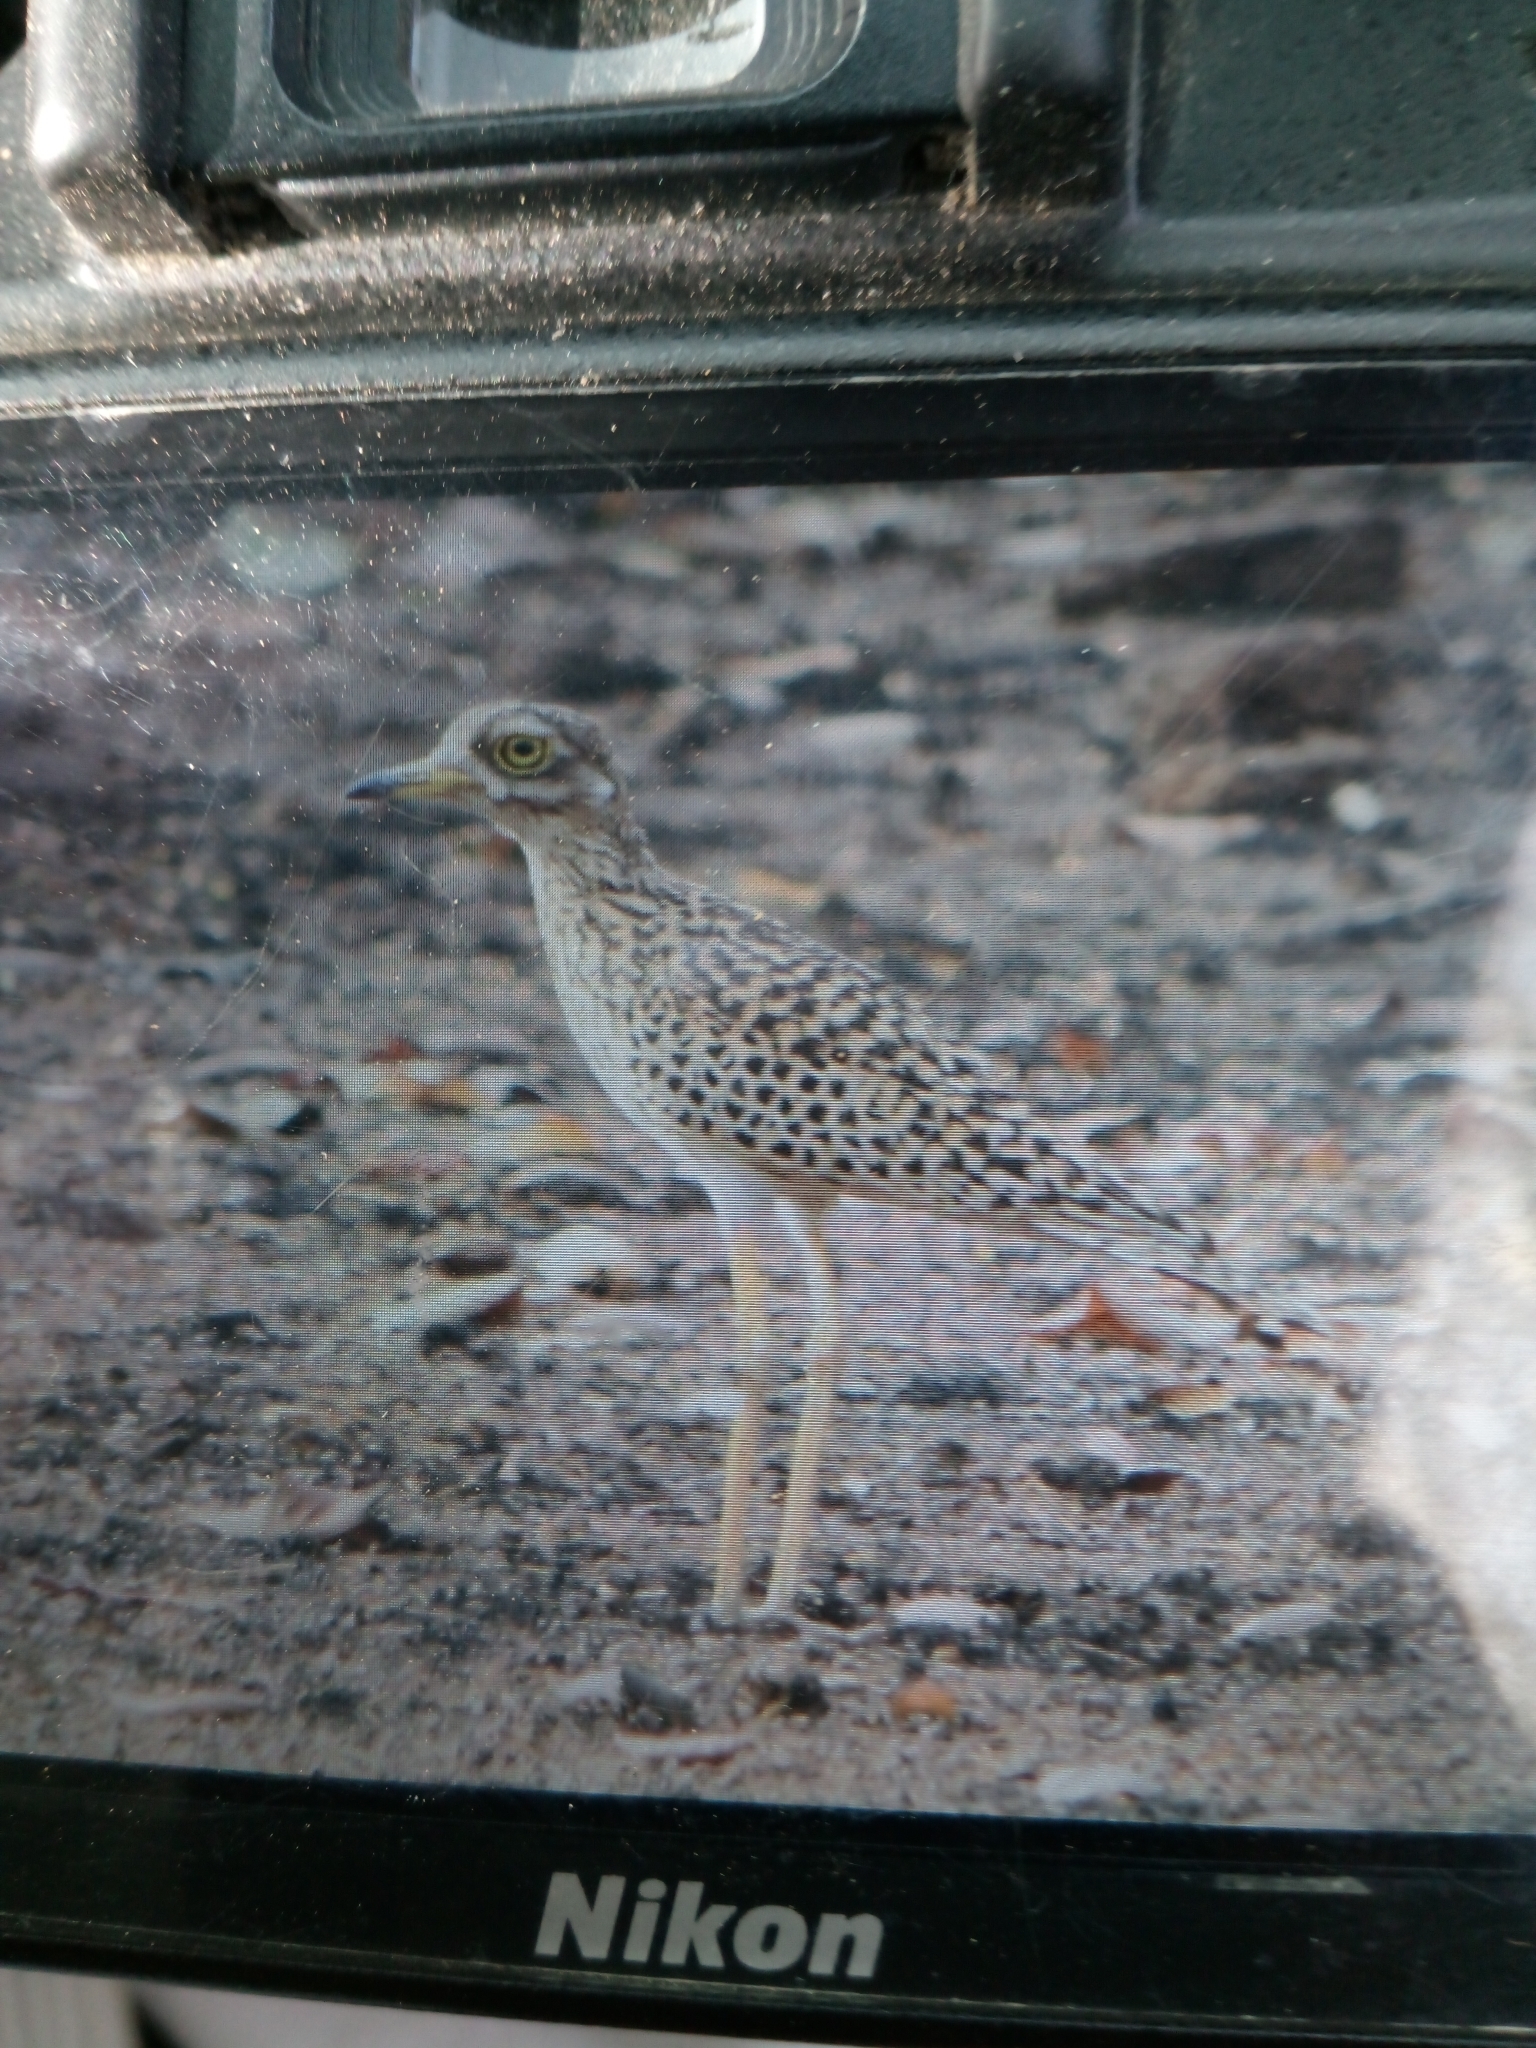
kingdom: Animalia
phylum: Chordata
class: Aves
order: Charadriiformes
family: Burhinidae
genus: Burhinus
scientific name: Burhinus capensis
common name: Spotted thick-knee
